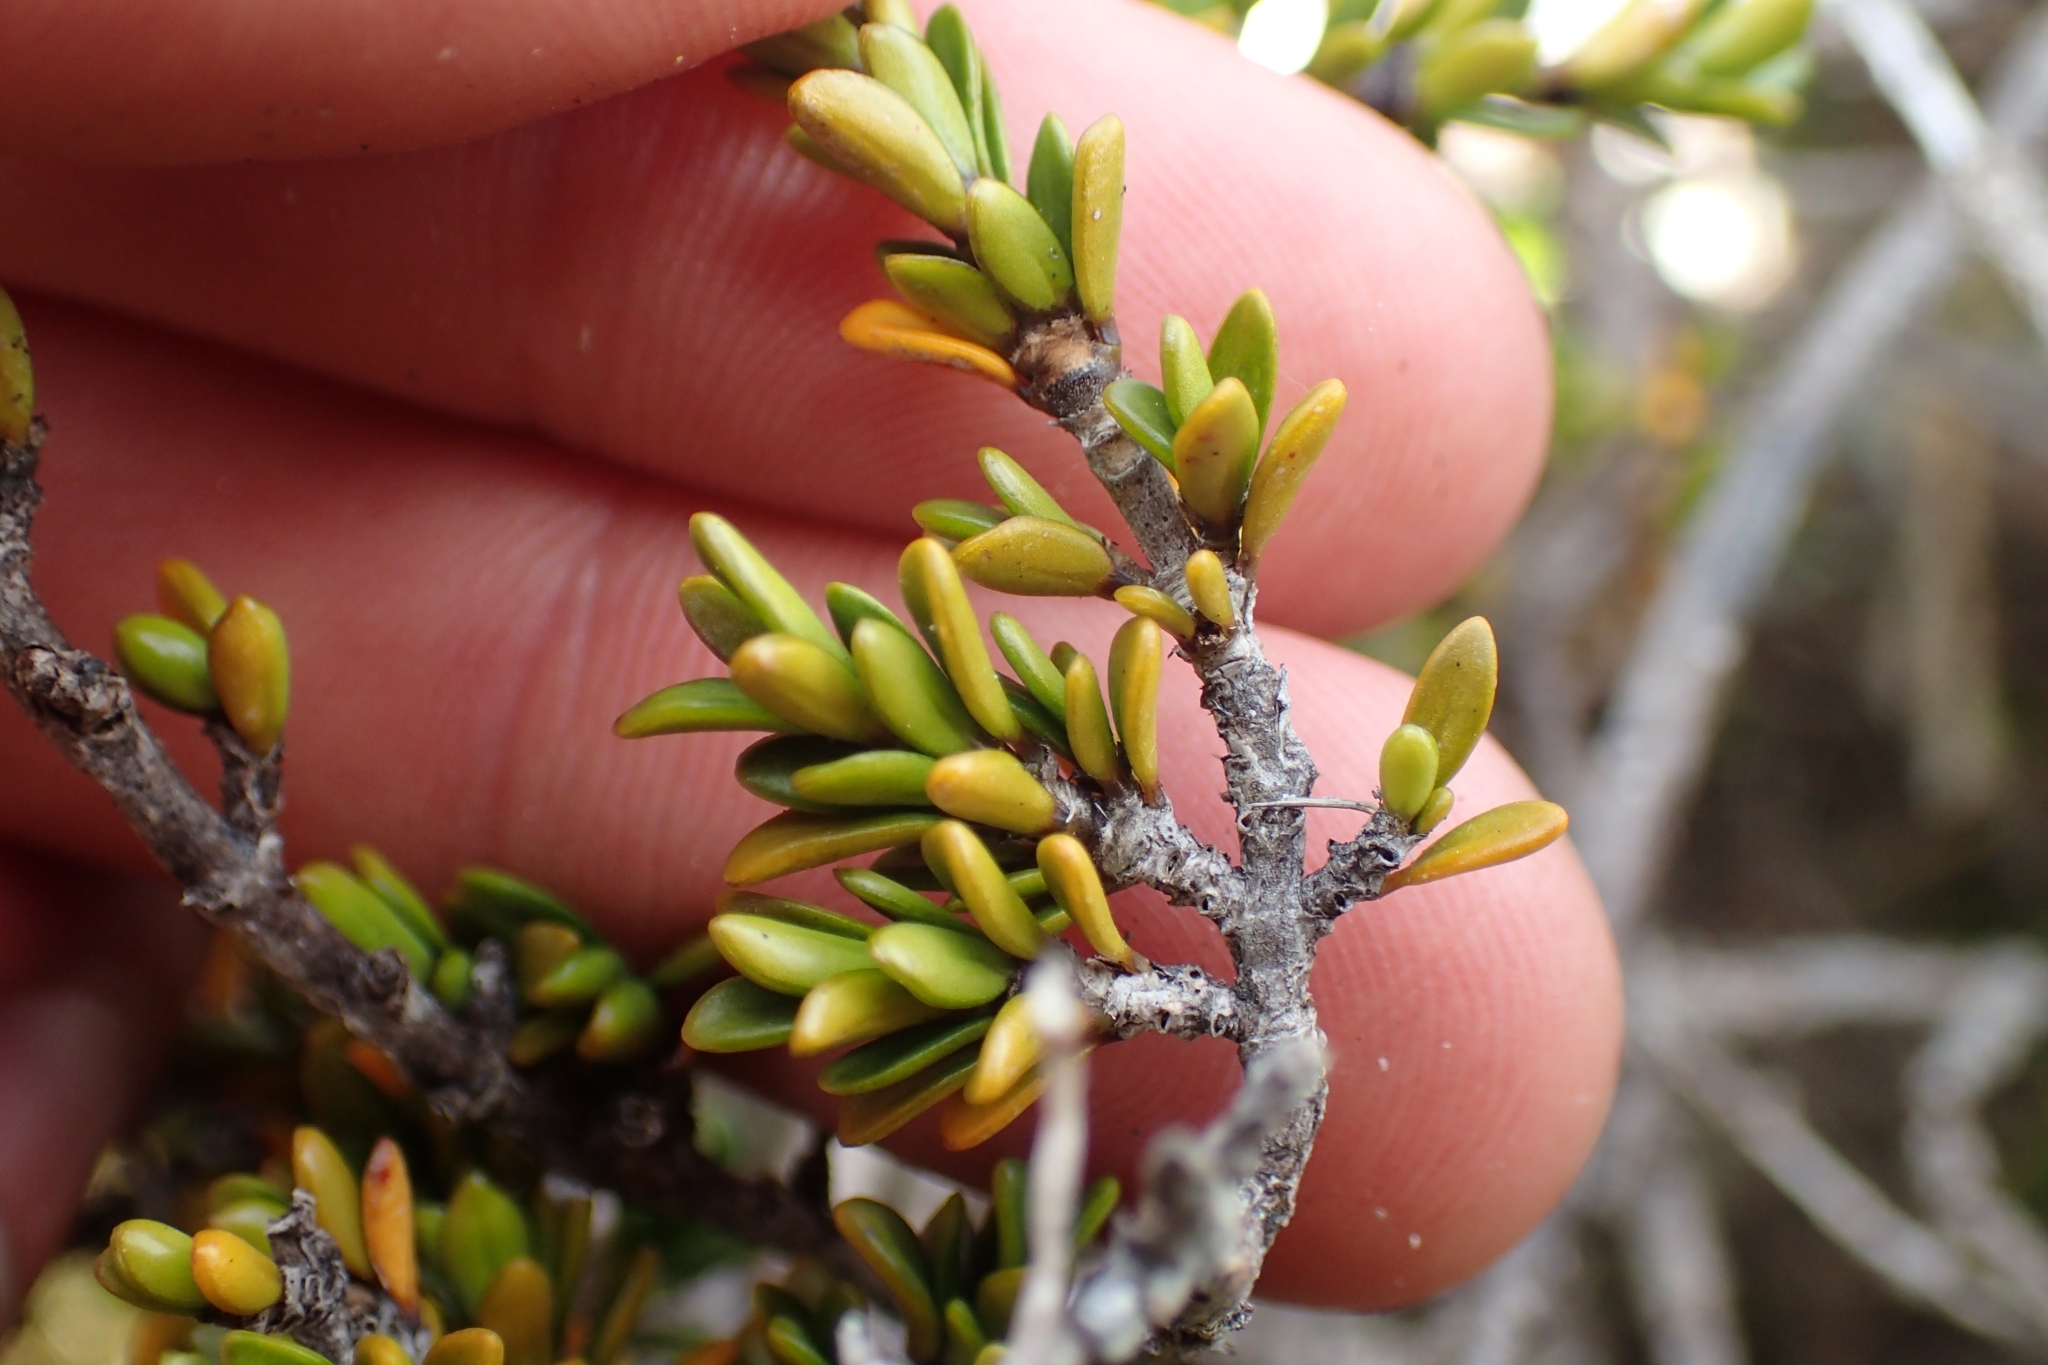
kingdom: Plantae
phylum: Tracheophyta
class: Magnoliopsida
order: Gentianales
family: Rubiaceae
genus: Coprosma
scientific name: Coprosma fowerakeri
